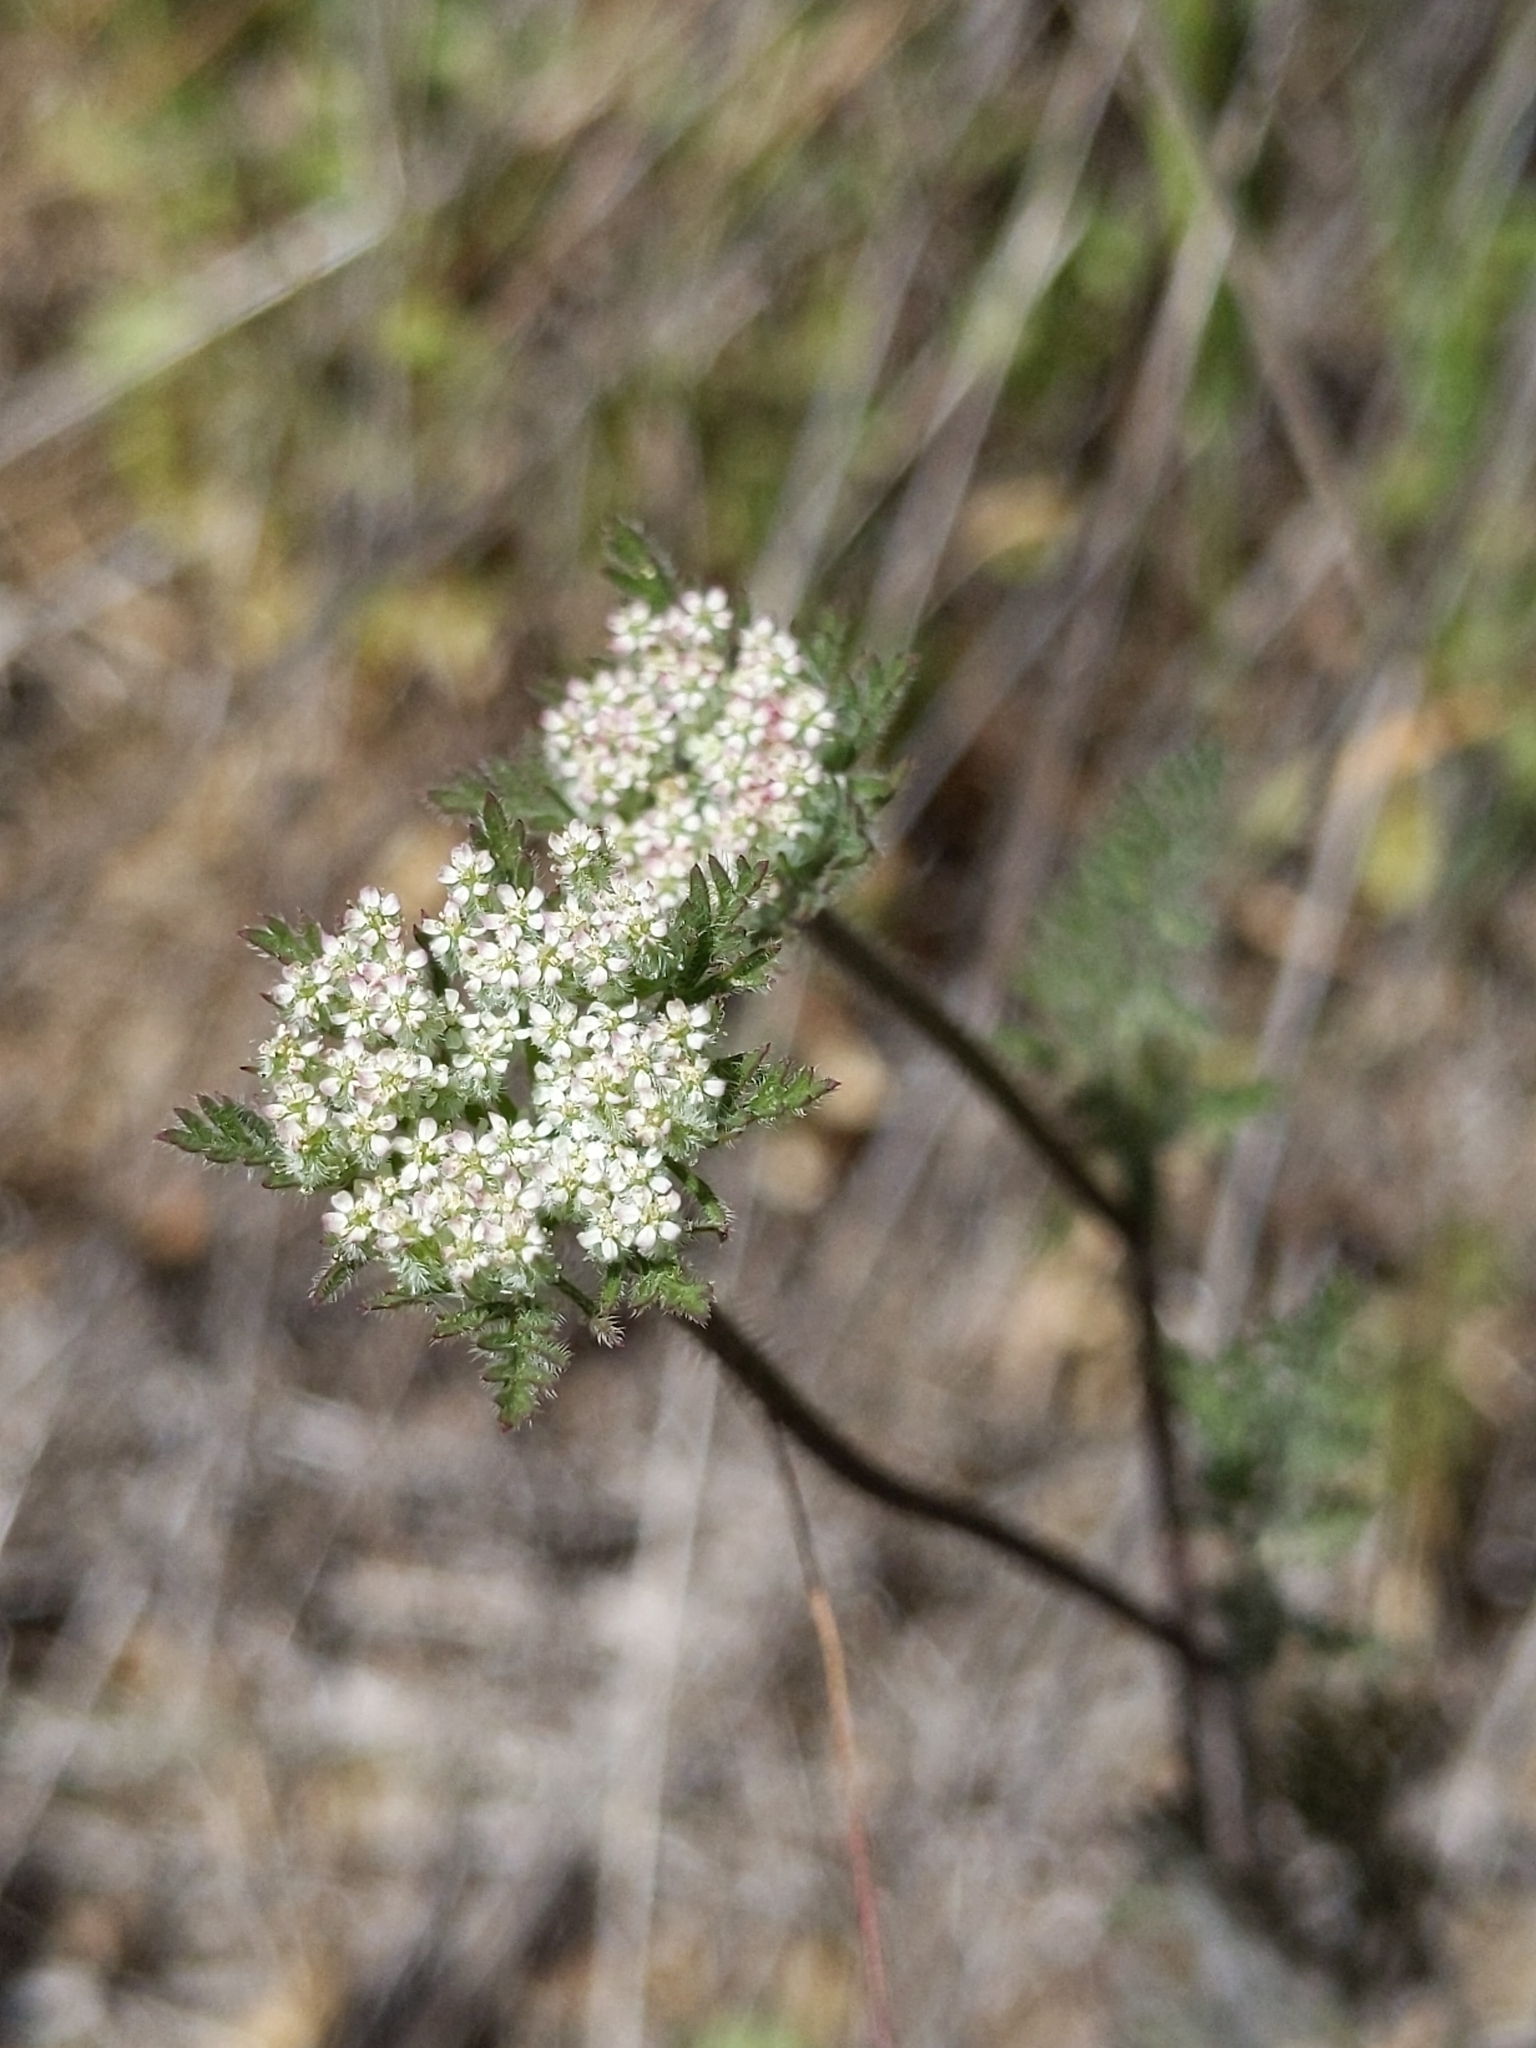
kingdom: Plantae
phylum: Tracheophyta
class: Magnoliopsida
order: Apiales
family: Apiaceae
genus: Daucus
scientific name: Daucus pusillus
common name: Southwest wild carrot
